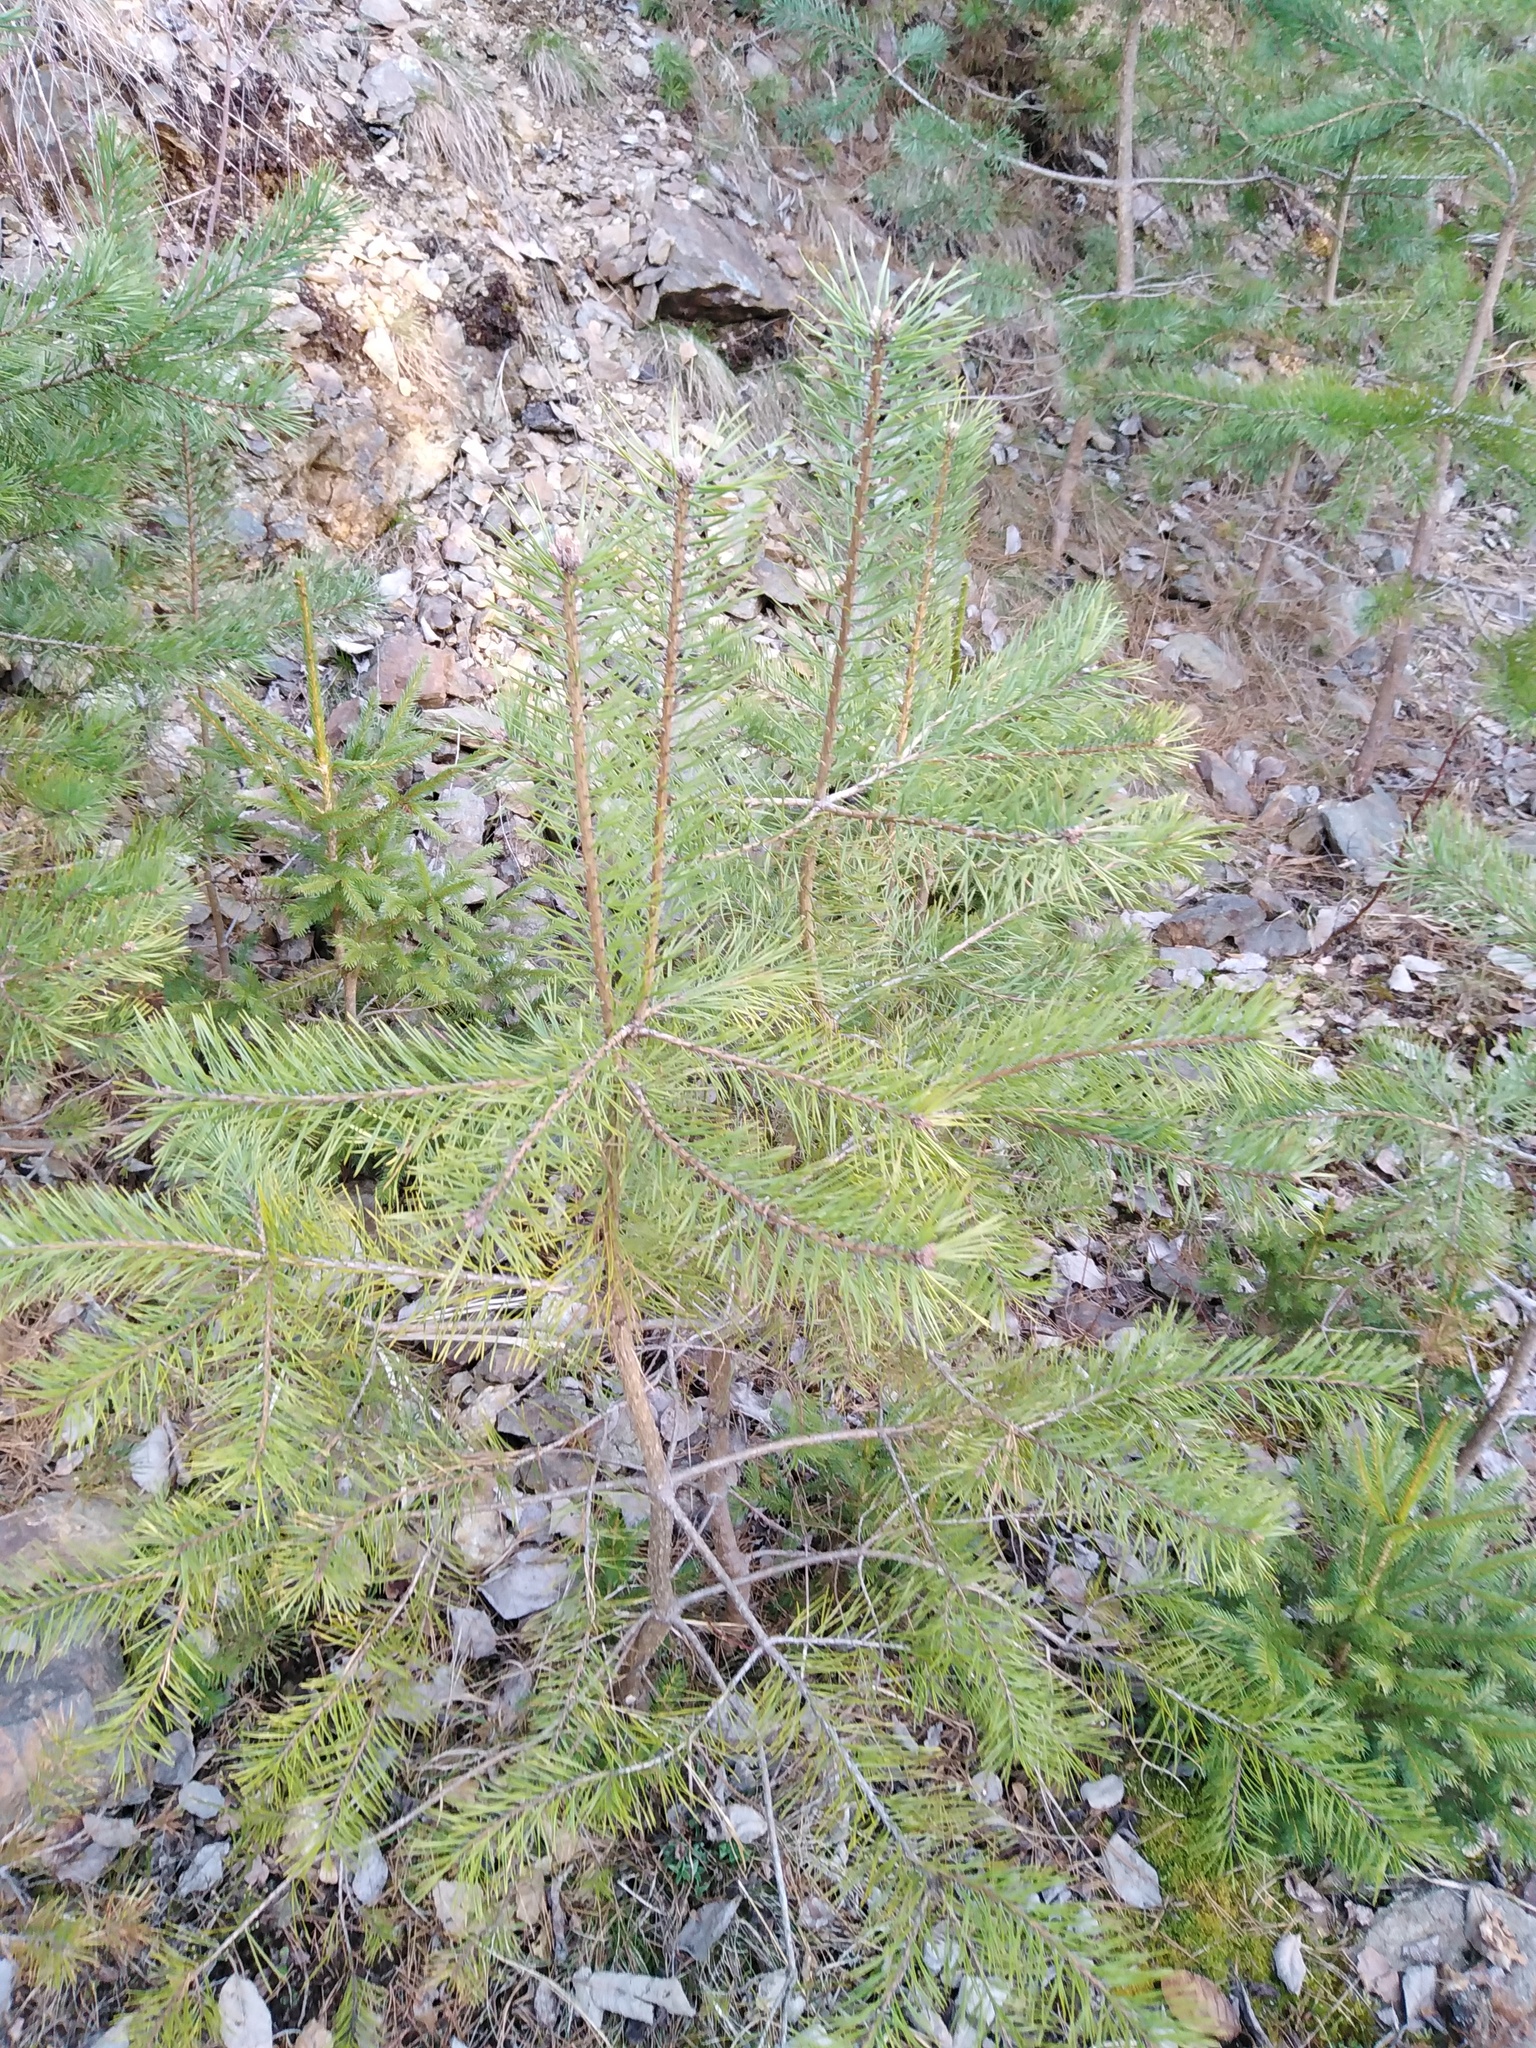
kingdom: Plantae
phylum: Tracheophyta
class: Pinopsida
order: Pinales
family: Pinaceae
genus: Pinus
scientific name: Pinus sylvestris
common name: Scots pine
